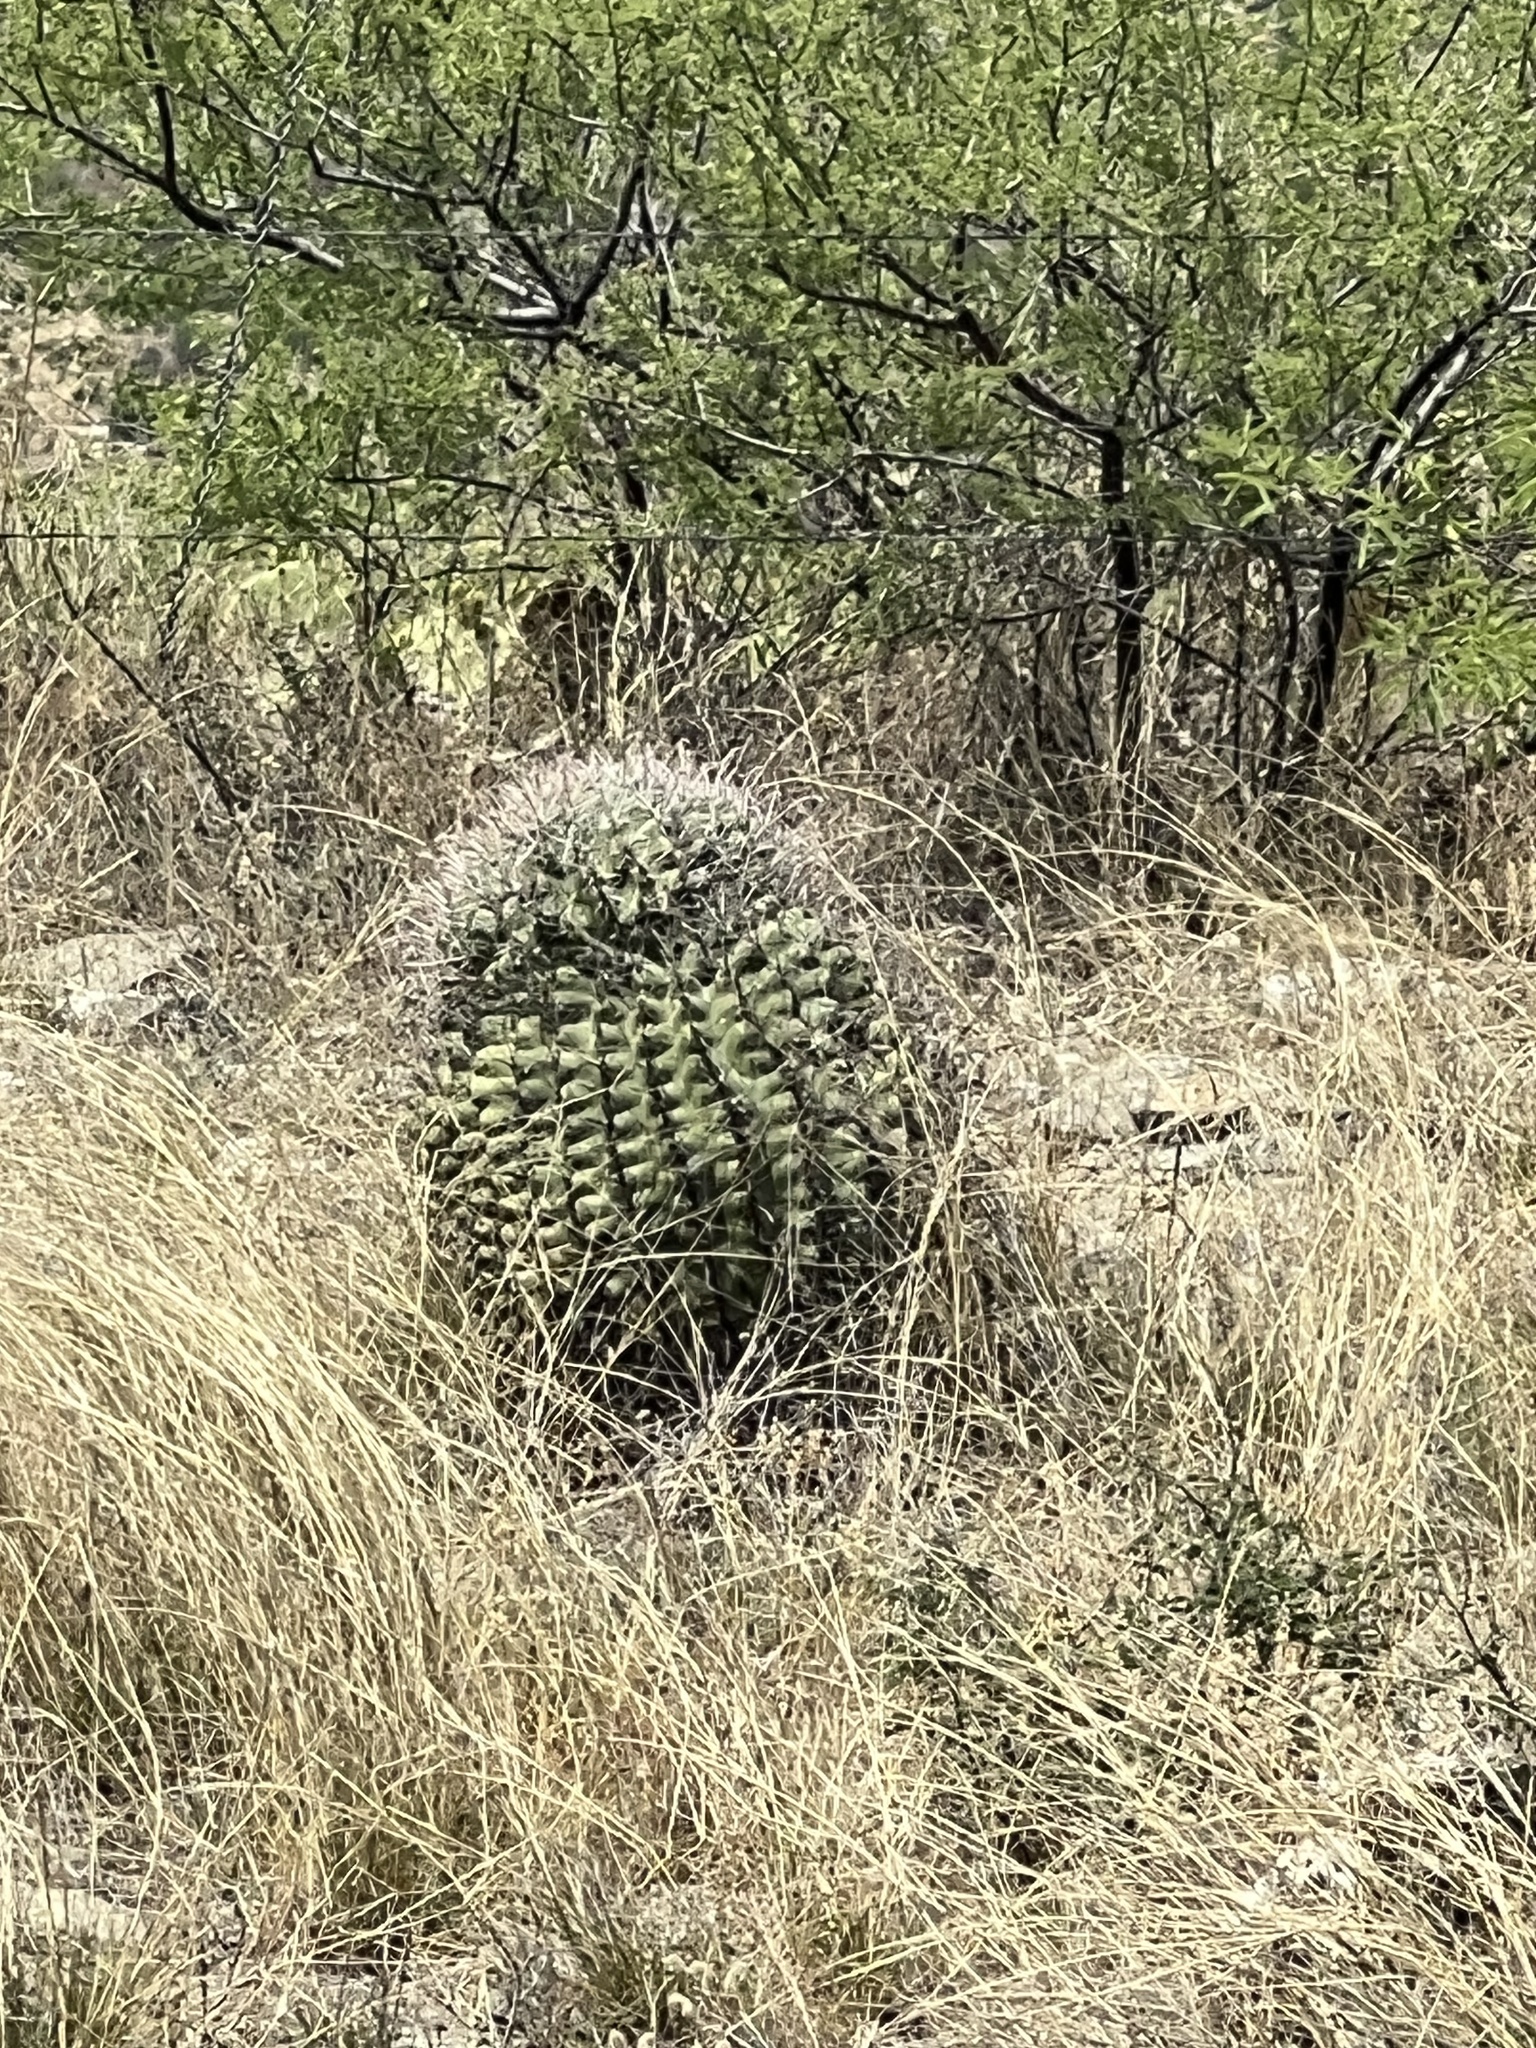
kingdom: Plantae
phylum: Tracheophyta
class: Magnoliopsida
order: Caryophyllales
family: Cactaceae
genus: Ferocactus
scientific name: Ferocactus wislizeni
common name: Candy barrel cactus
